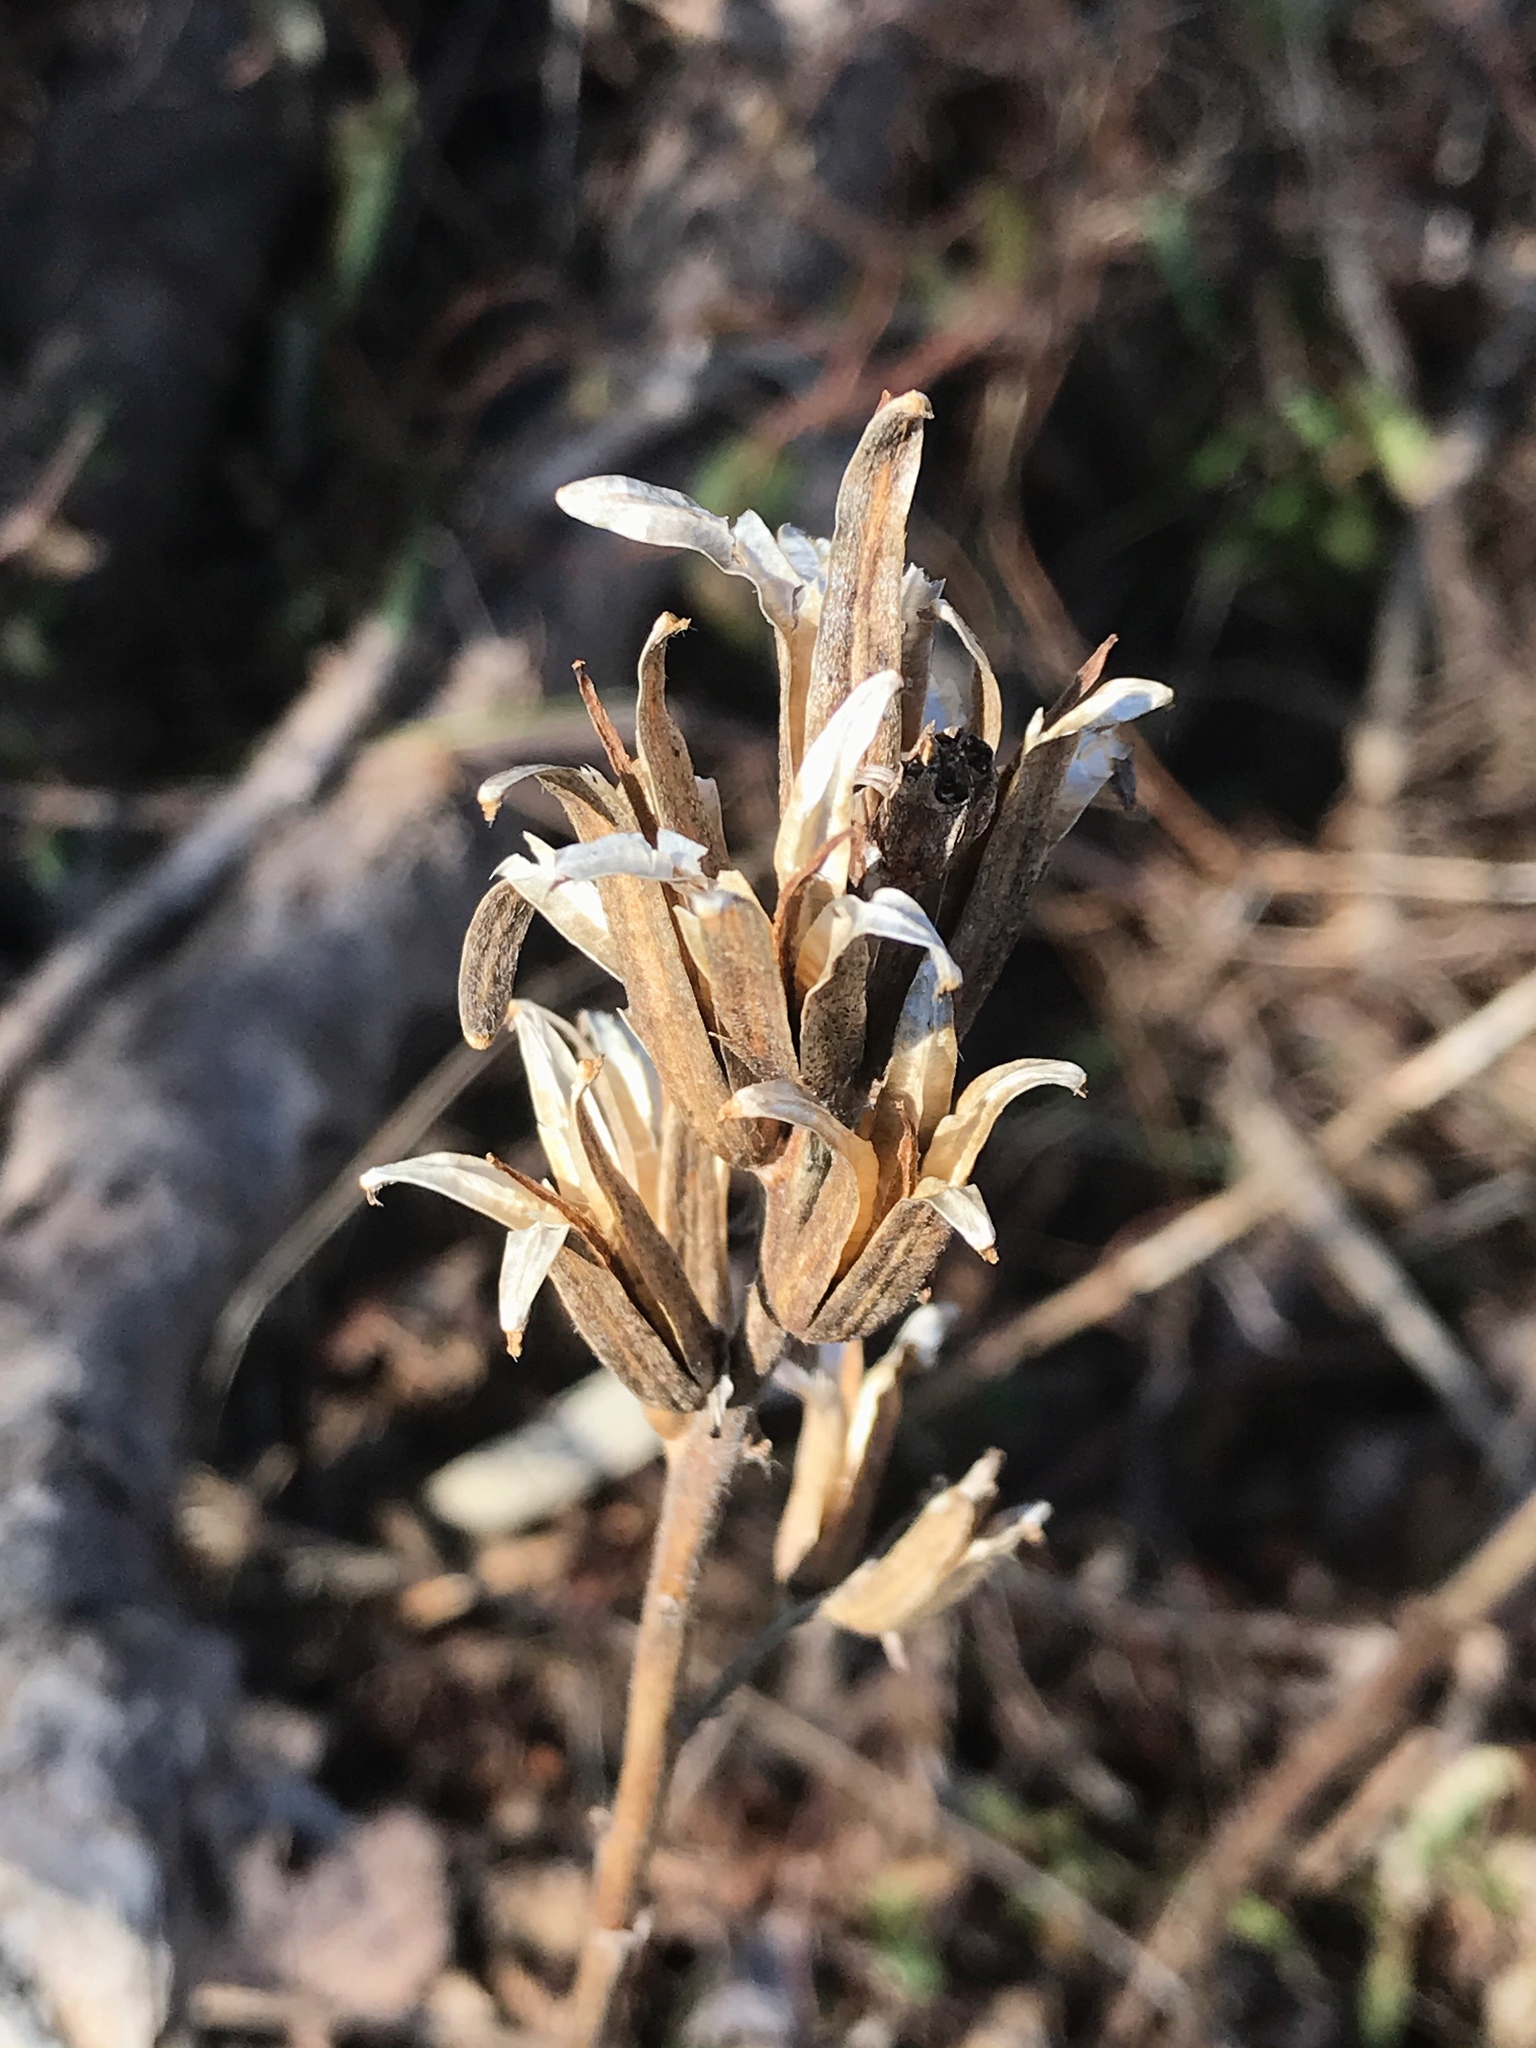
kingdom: Plantae
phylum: Tracheophyta
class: Magnoliopsida
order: Myrtales
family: Onagraceae
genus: Oenothera
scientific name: Oenothera biennis
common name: Common evening-primrose
